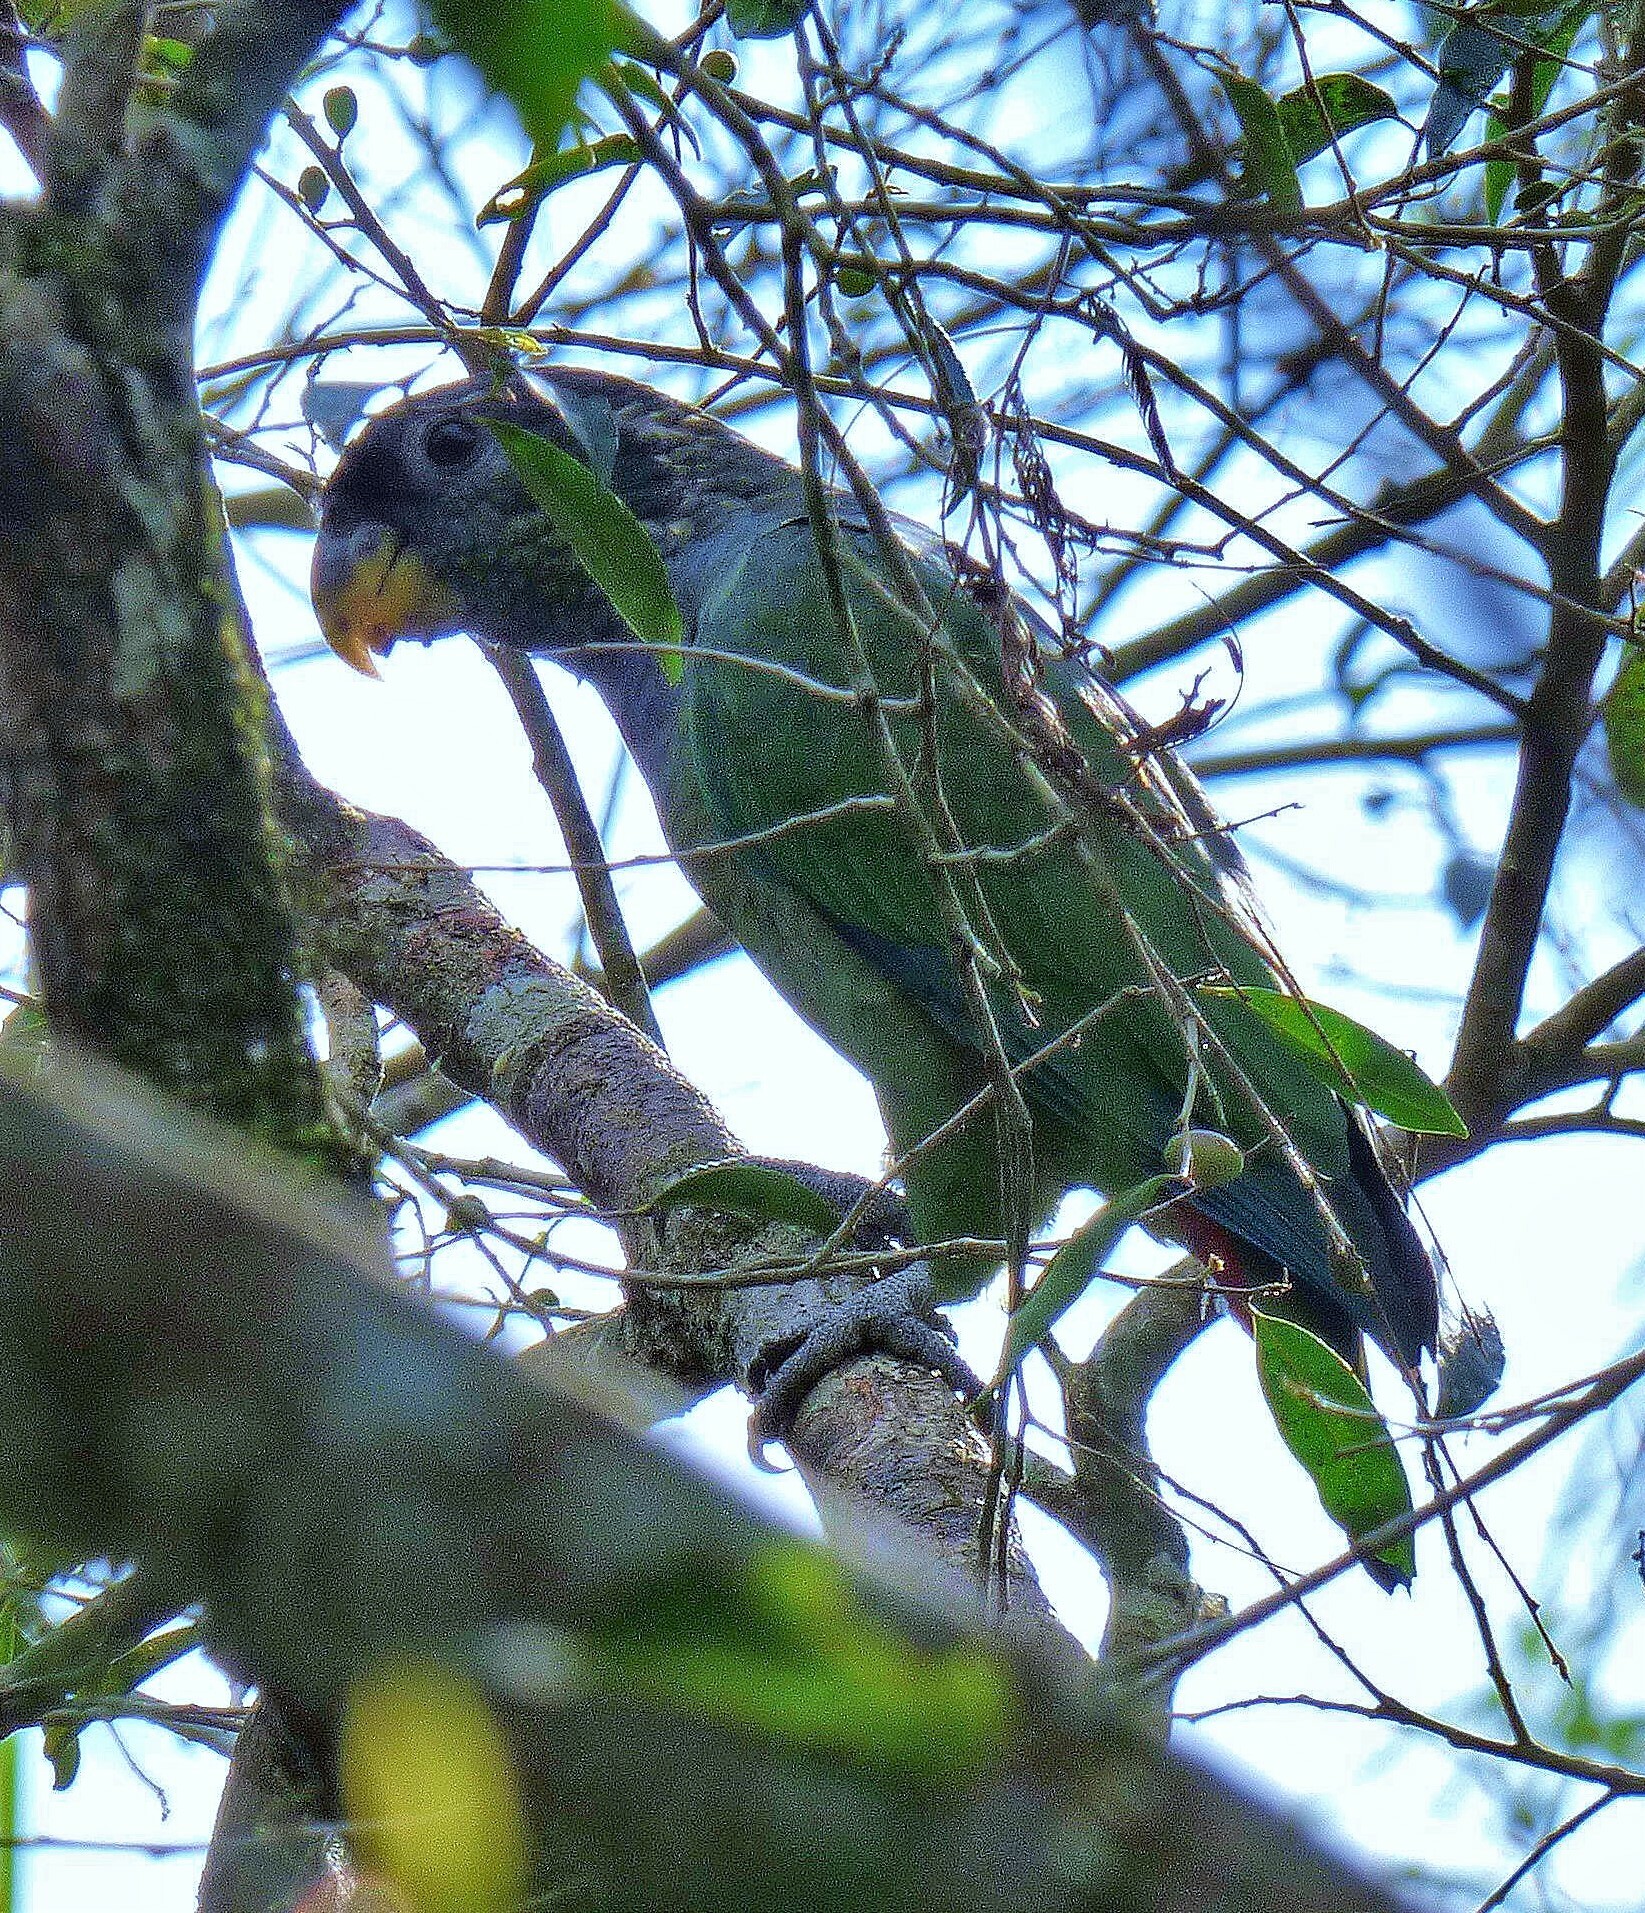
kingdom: Animalia
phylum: Chordata
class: Aves
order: Psittaciformes
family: Psittacidae
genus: Pionus
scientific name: Pionus maximiliani
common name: Scaly-headed parrot
